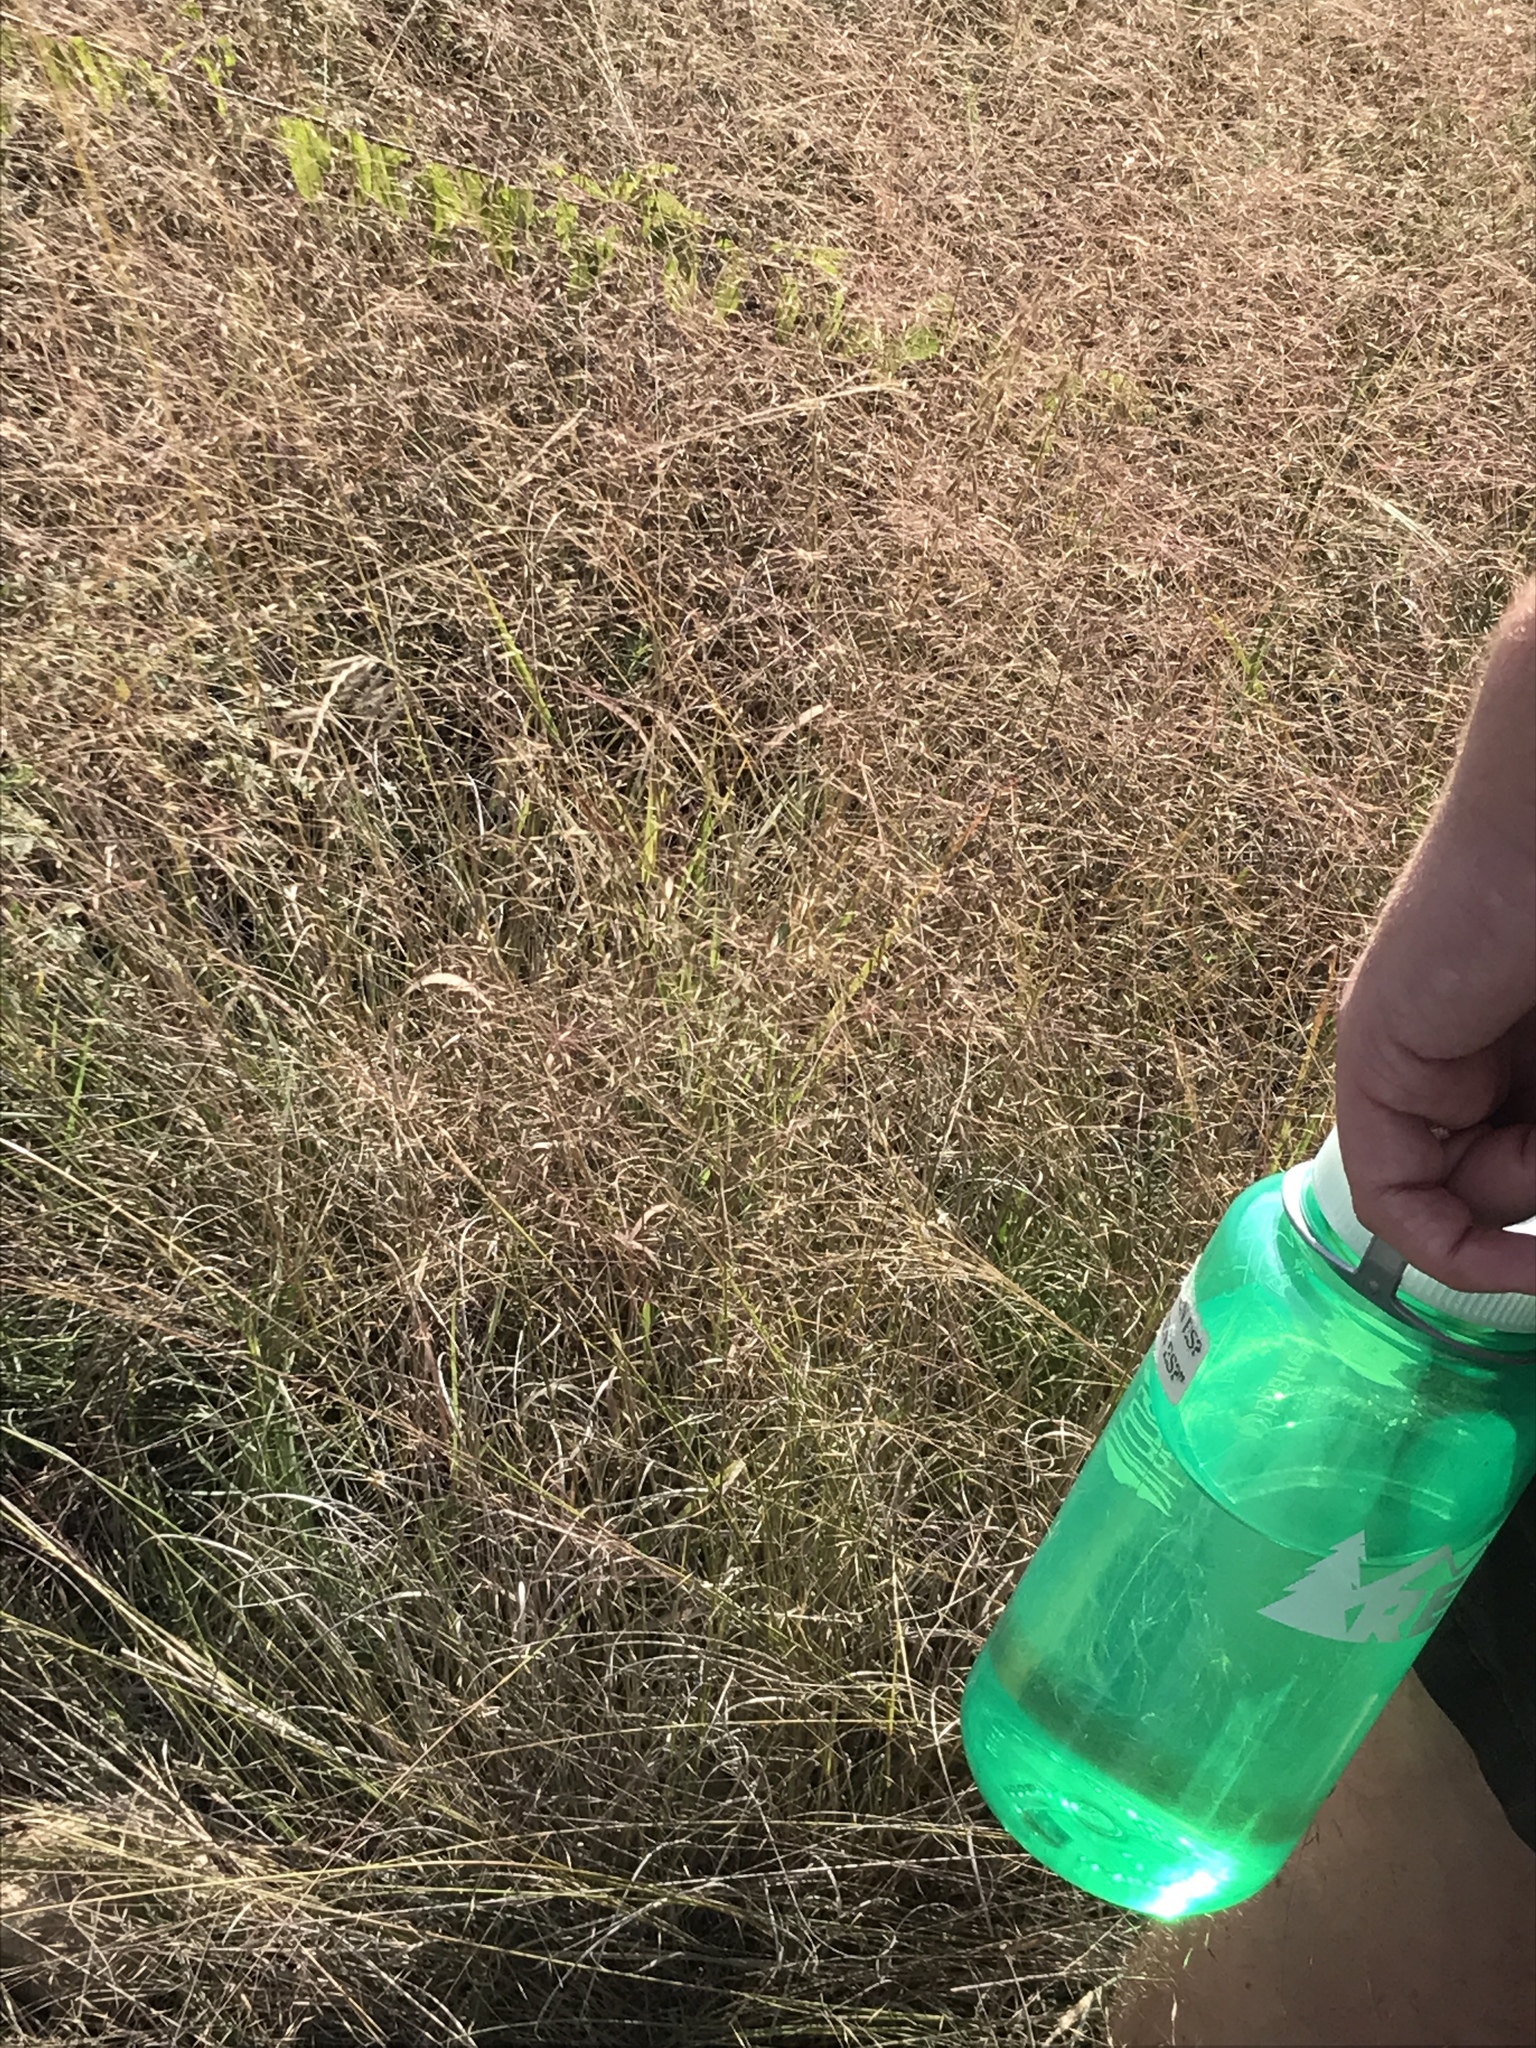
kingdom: Plantae
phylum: Tracheophyta
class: Liliopsida
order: Poales
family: Poaceae
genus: Muhlenbergia
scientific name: Muhlenbergia reverchonii
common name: Seep muhly
